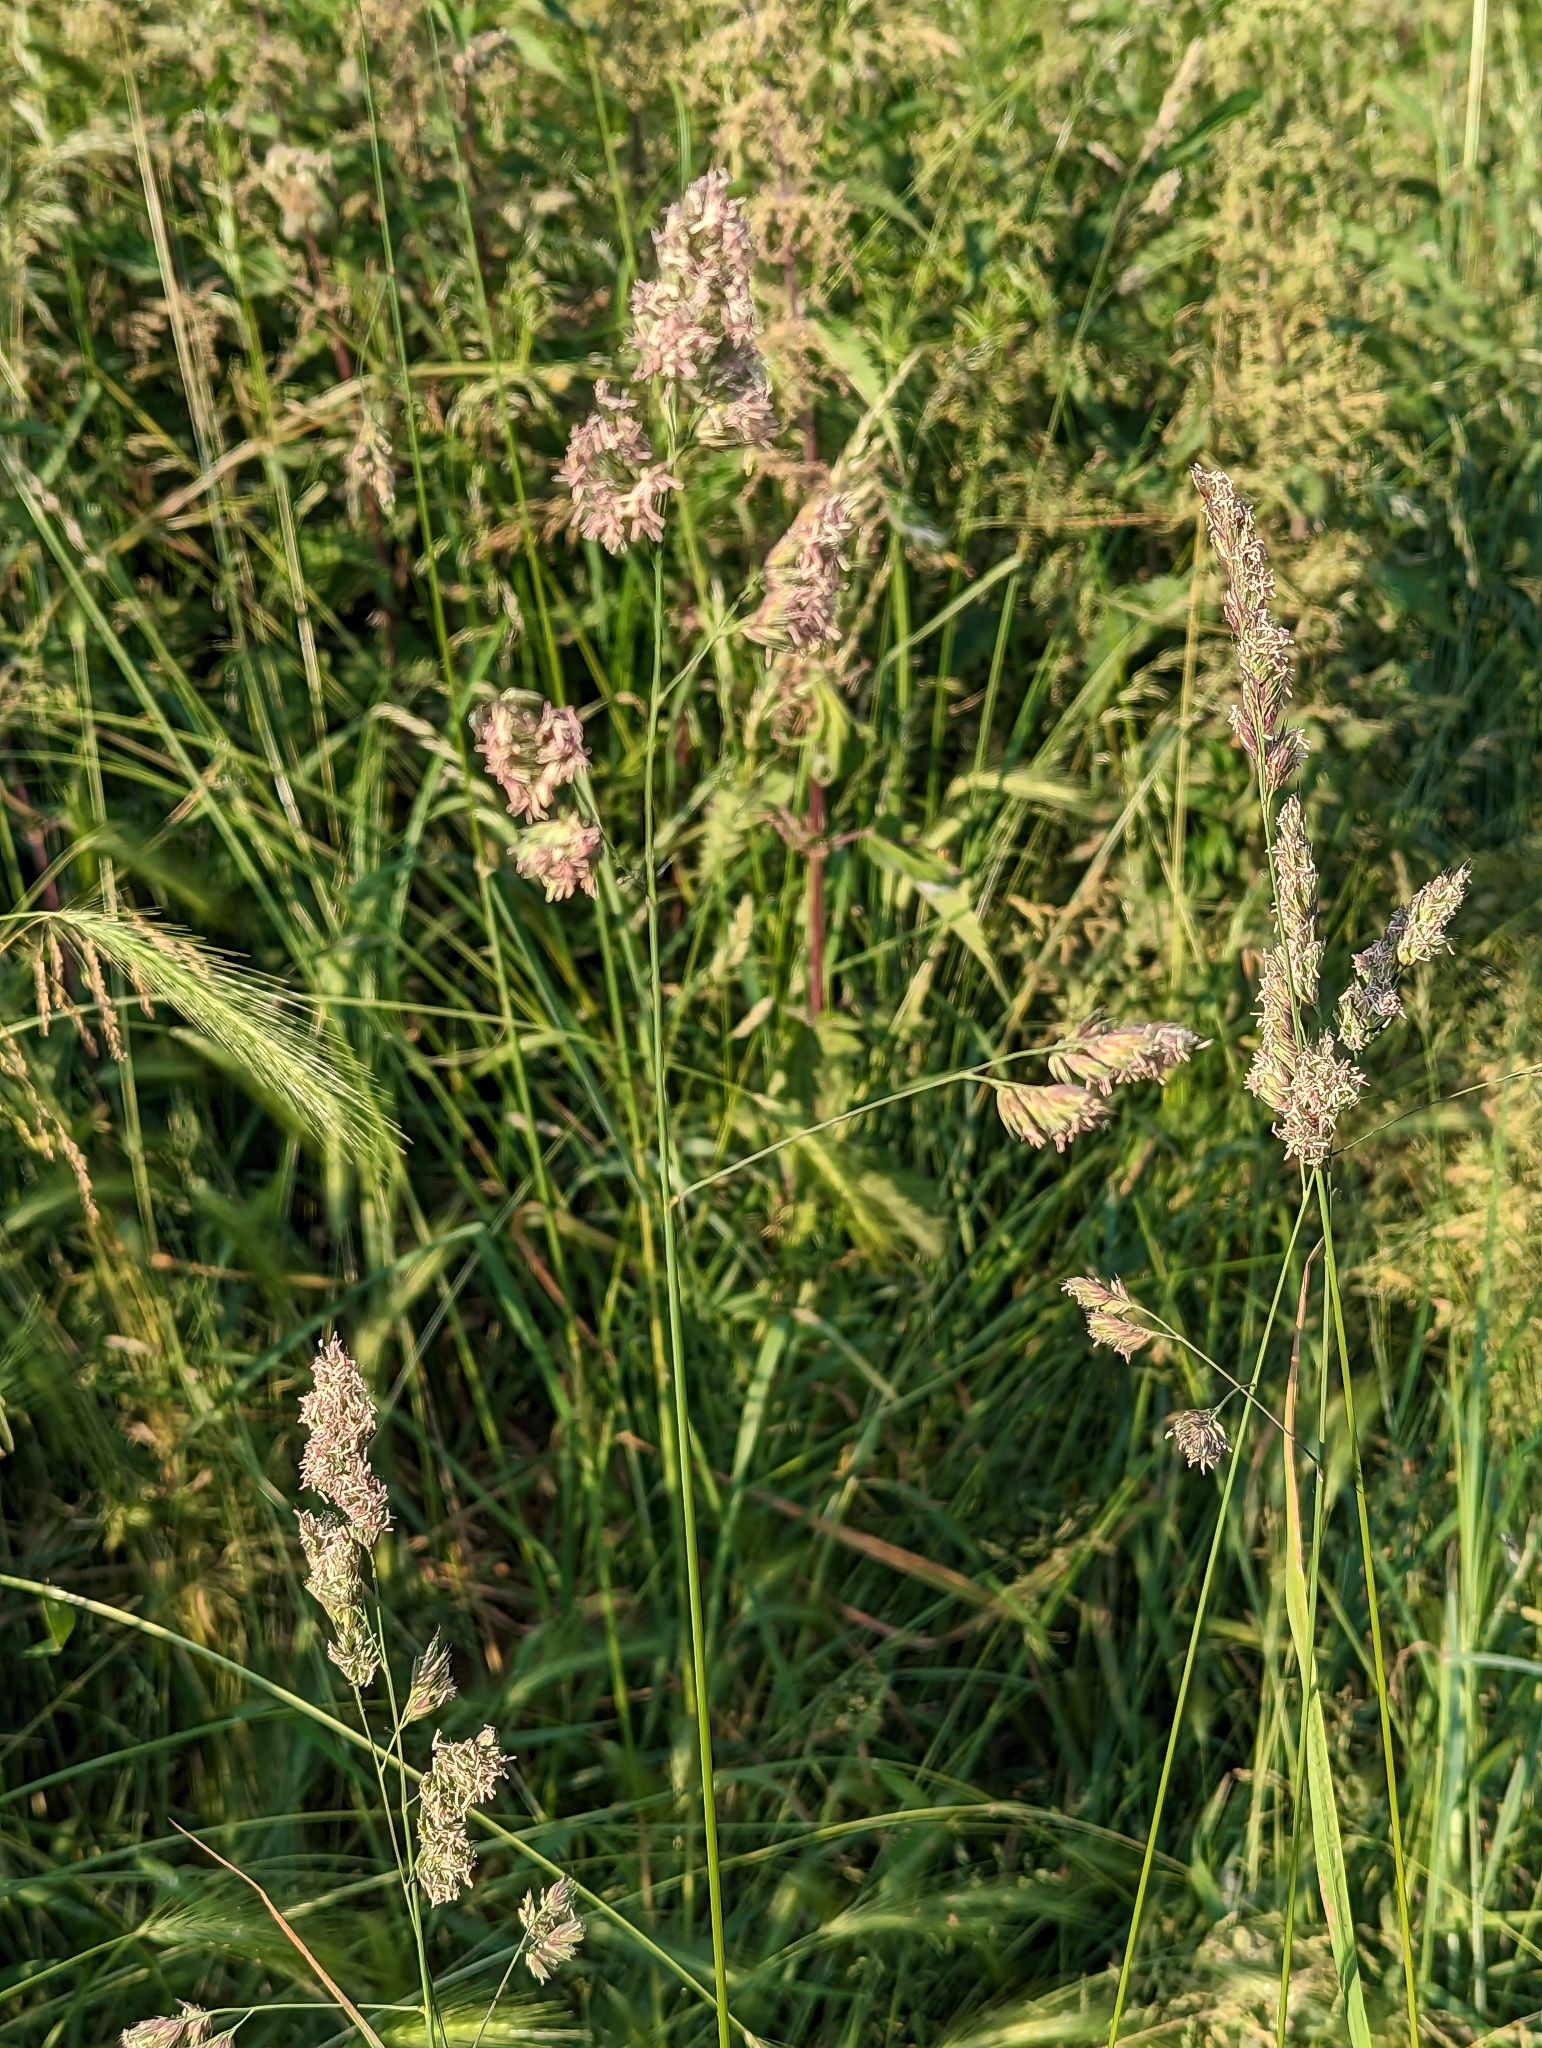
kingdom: Plantae
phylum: Tracheophyta
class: Liliopsida
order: Poales
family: Poaceae
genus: Dactylis
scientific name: Dactylis glomerata
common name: Orchardgrass
